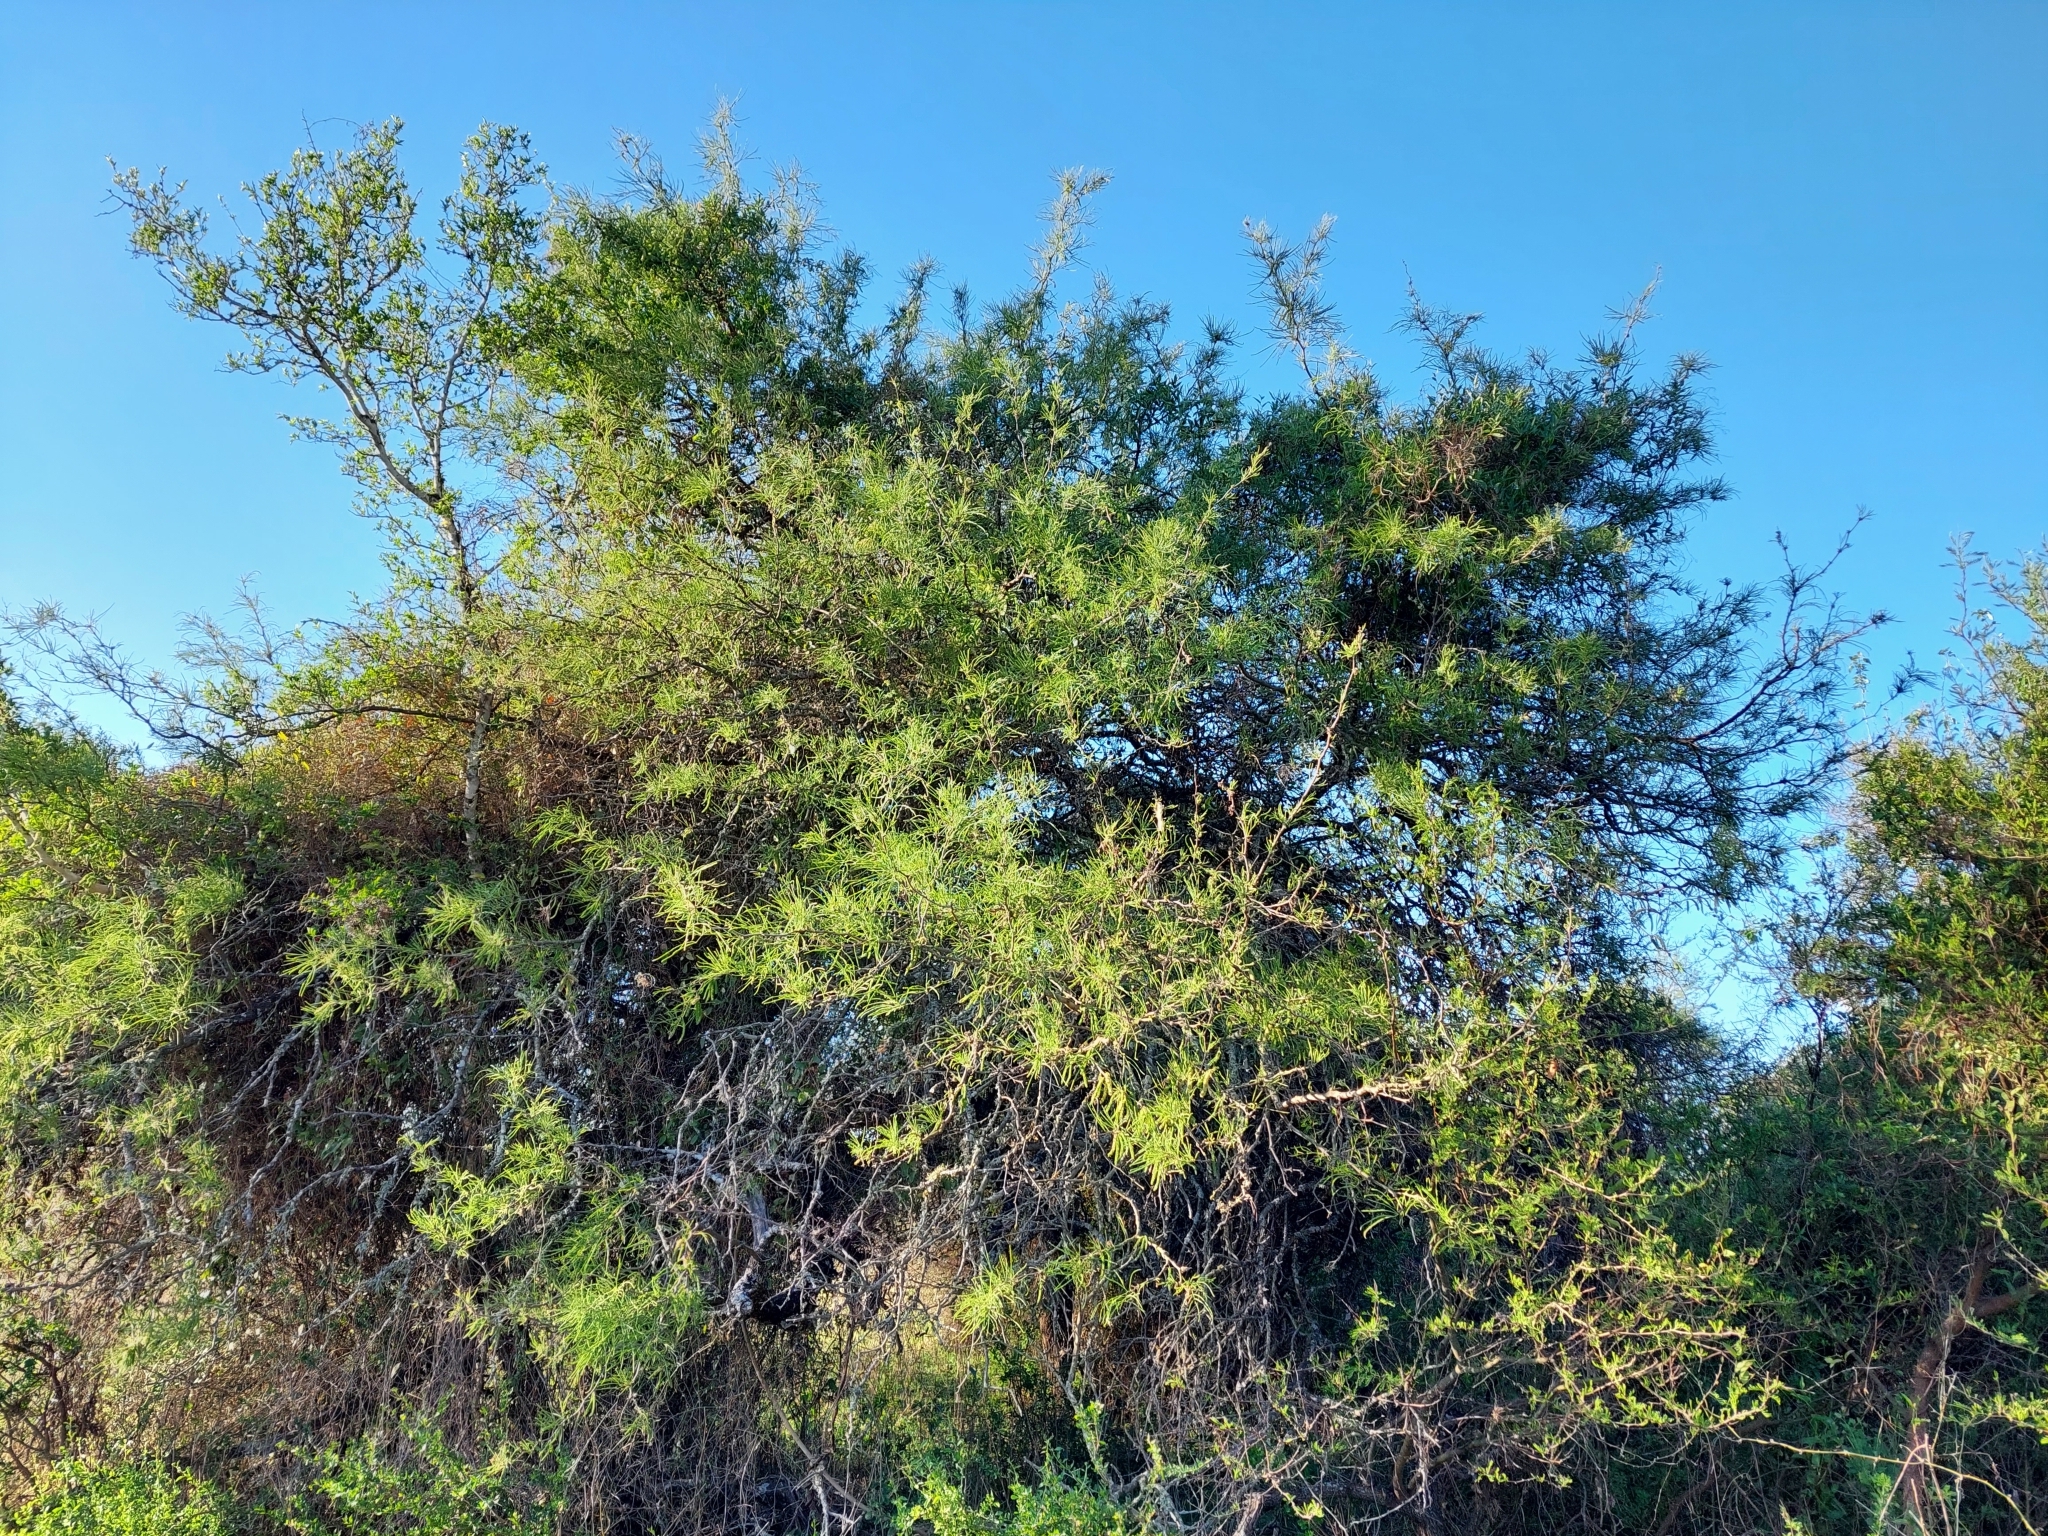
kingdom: Plantae
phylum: Tracheophyta
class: Magnoliopsida
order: Fabales
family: Fabaceae
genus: Prosopis
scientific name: Prosopis alba
